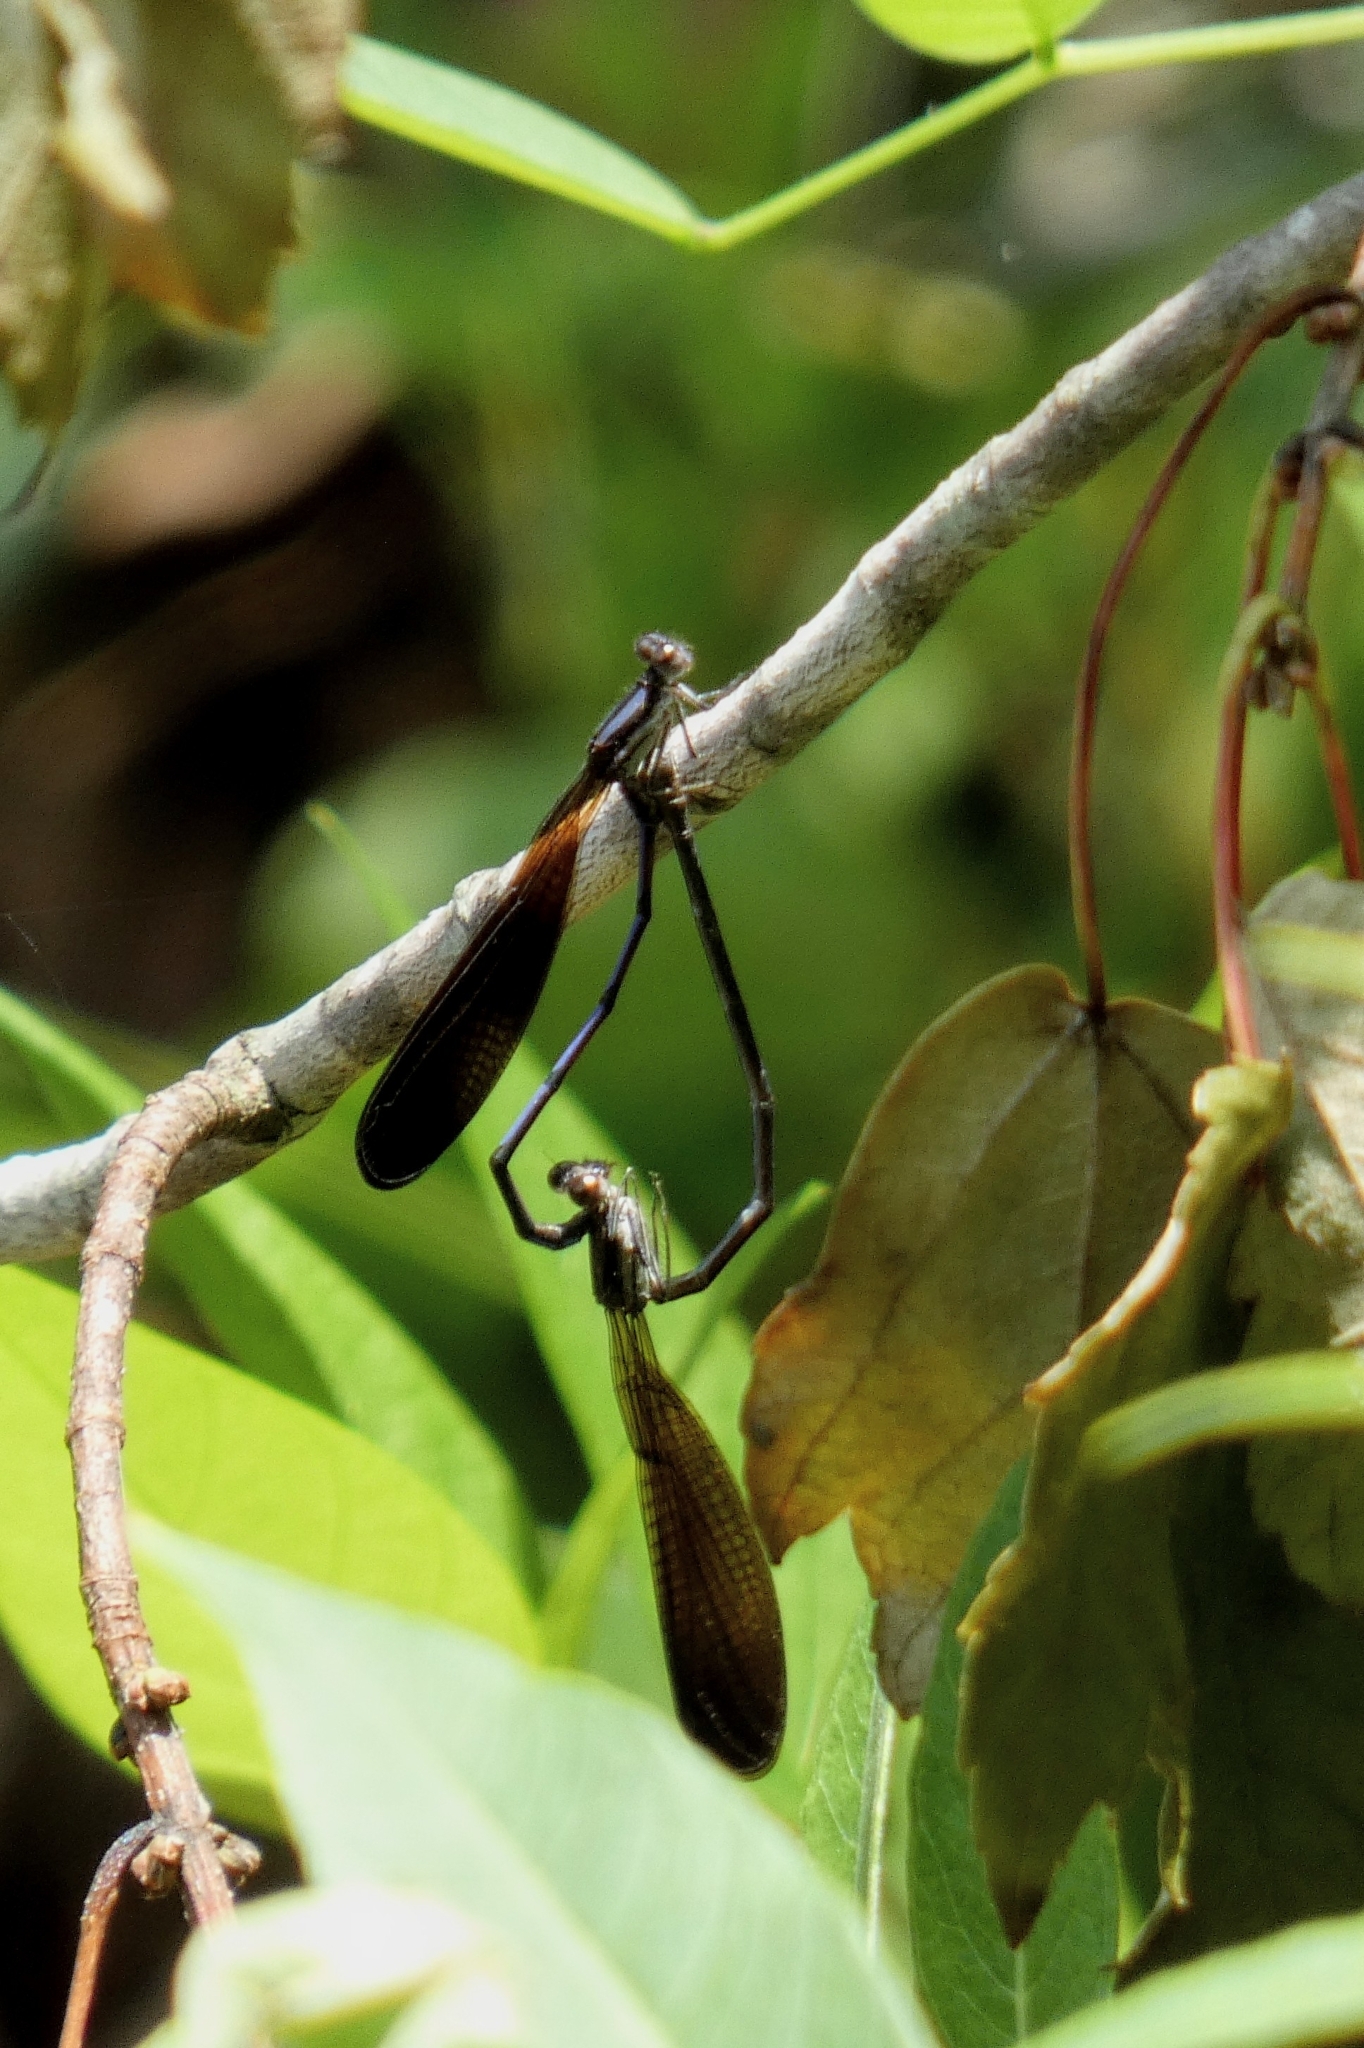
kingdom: Animalia
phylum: Arthropoda
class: Insecta
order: Odonata
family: Coenagrionidae
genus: Argia
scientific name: Argia fumipennis
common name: Variable dancer
